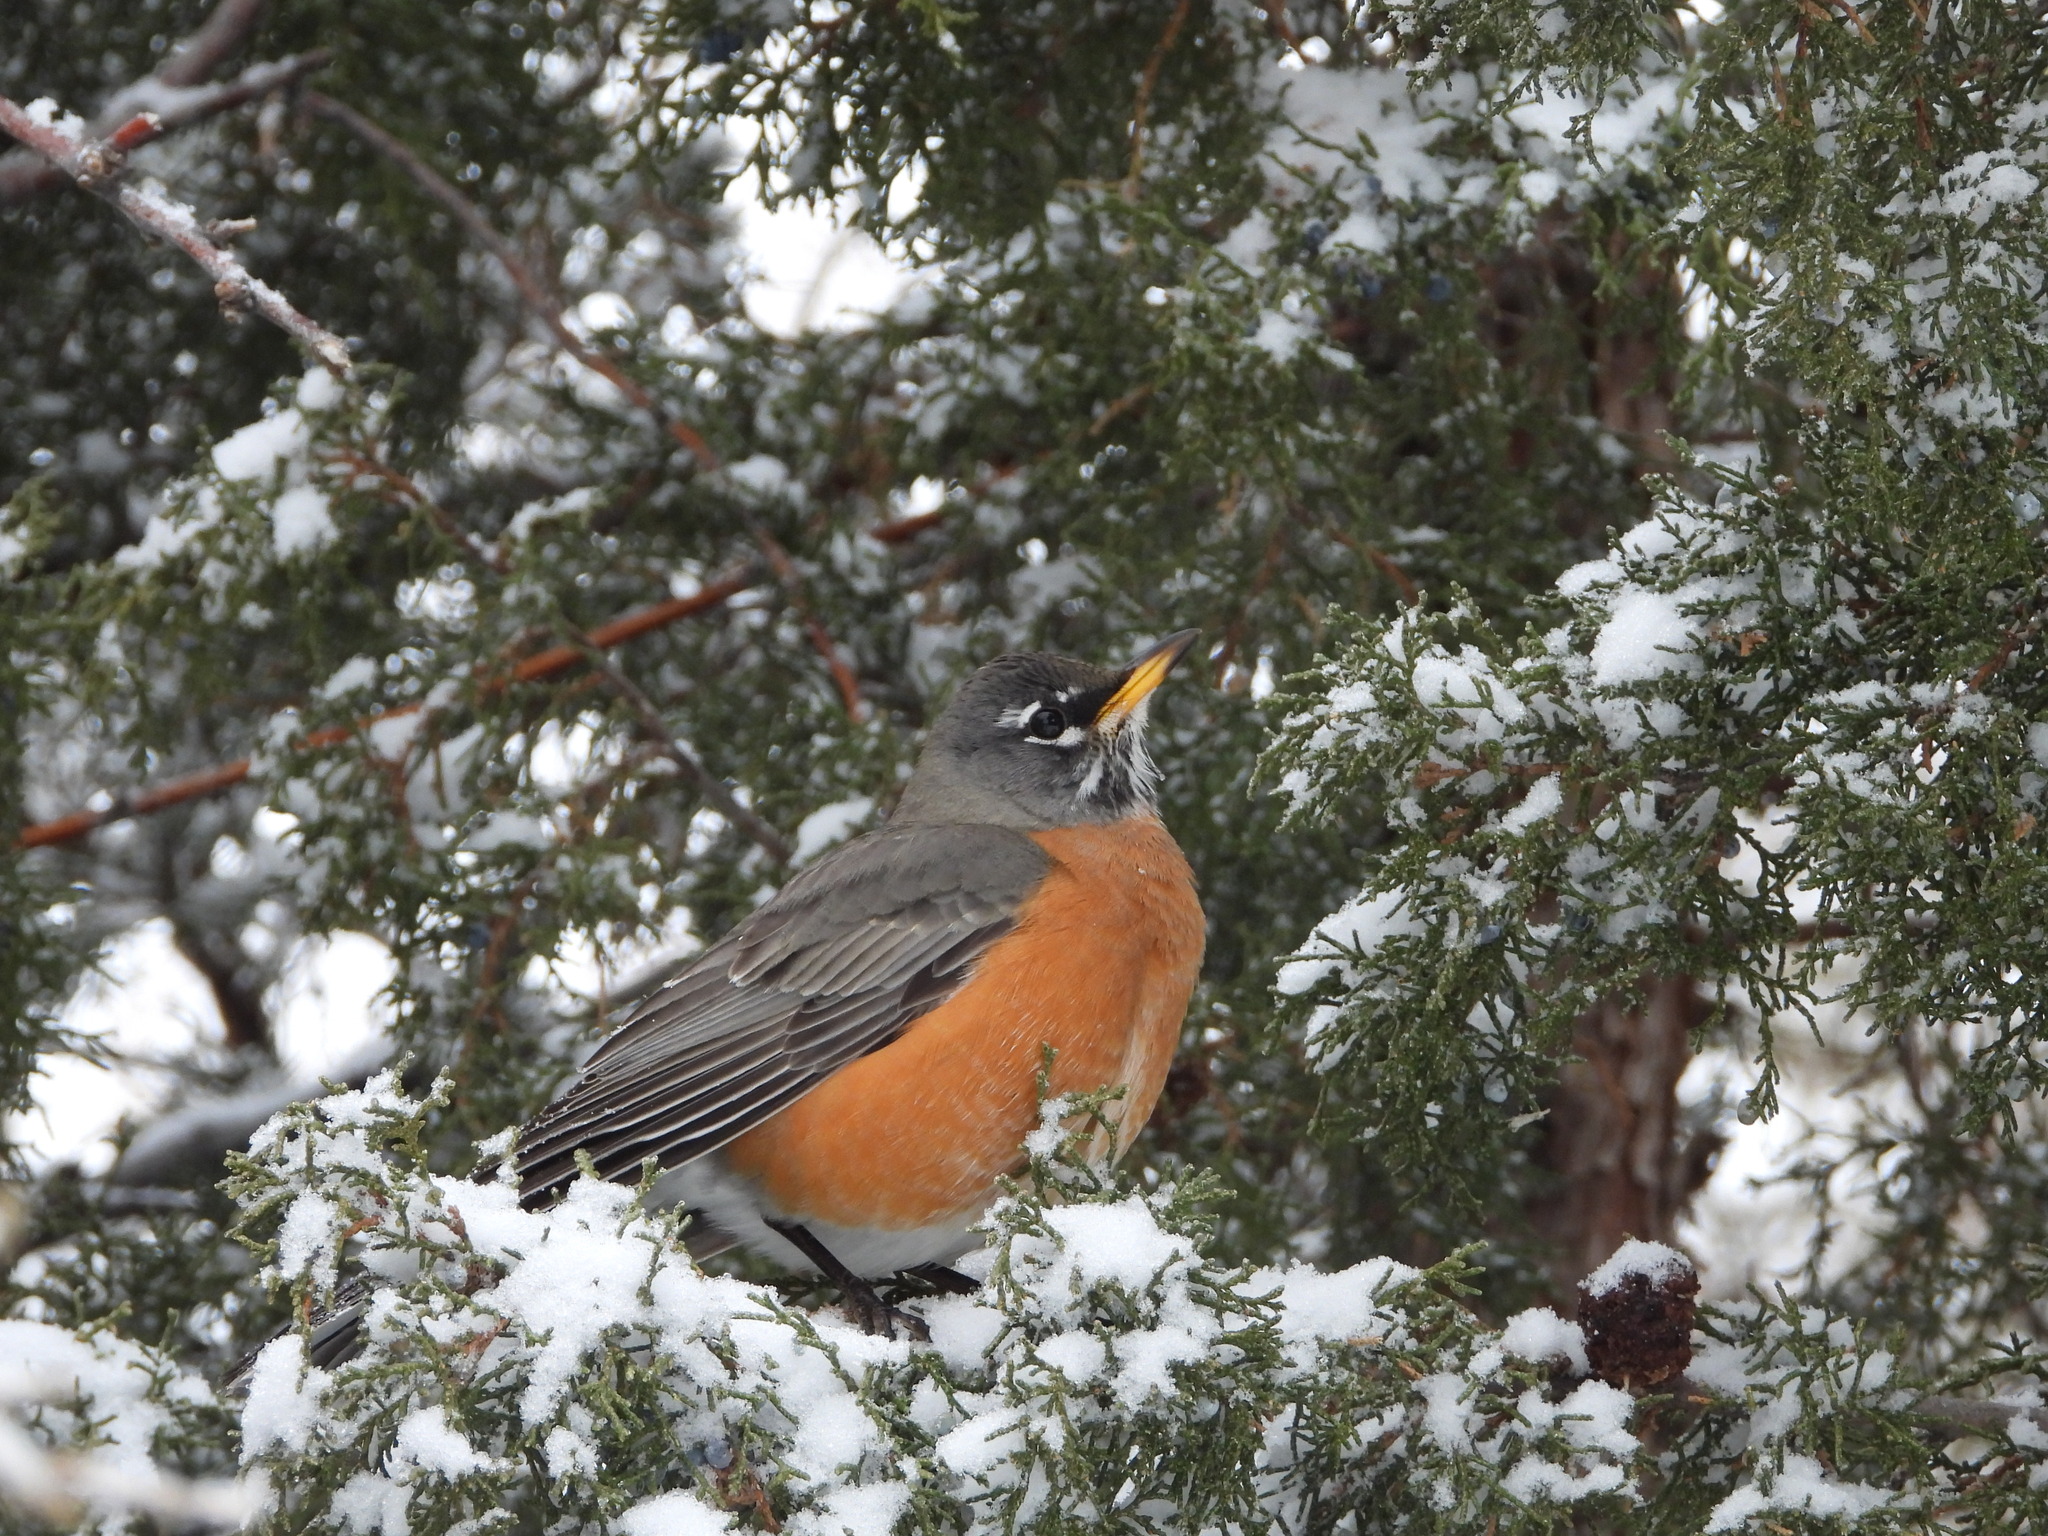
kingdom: Animalia
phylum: Chordata
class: Aves
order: Passeriformes
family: Turdidae
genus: Turdus
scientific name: Turdus migratorius
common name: American robin
